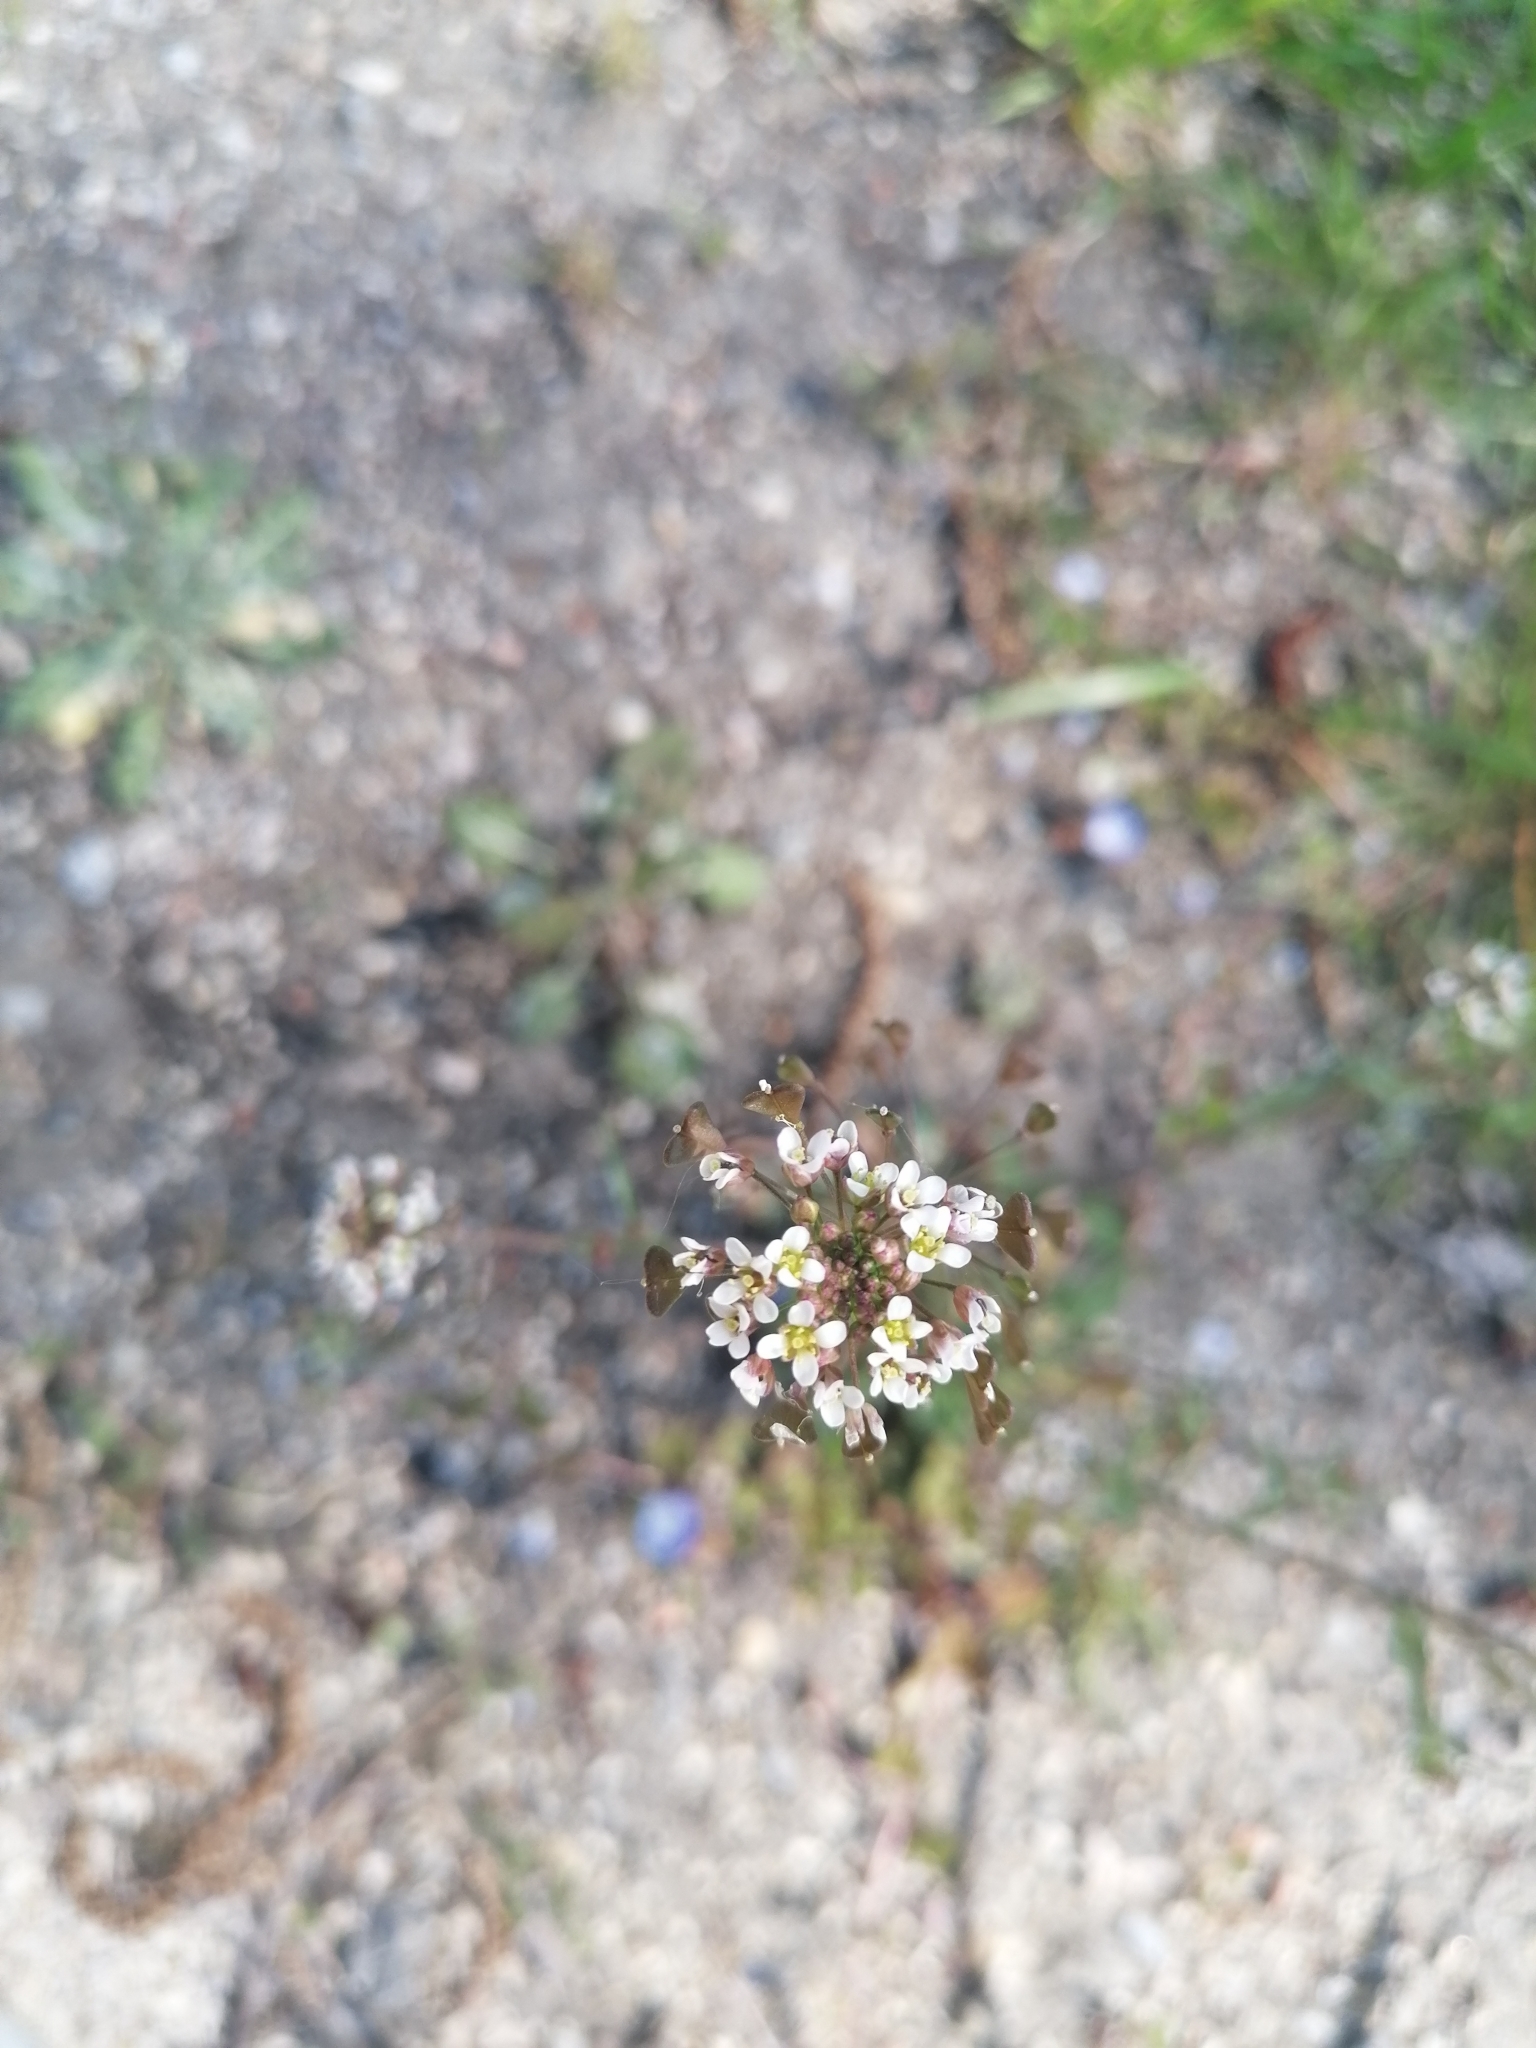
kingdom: Plantae
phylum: Tracheophyta
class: Magnoliopsida
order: Brassicales
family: Brassicaceae
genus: Capsella
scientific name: Capsella bursa-pastoris
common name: Shepherd's purse
